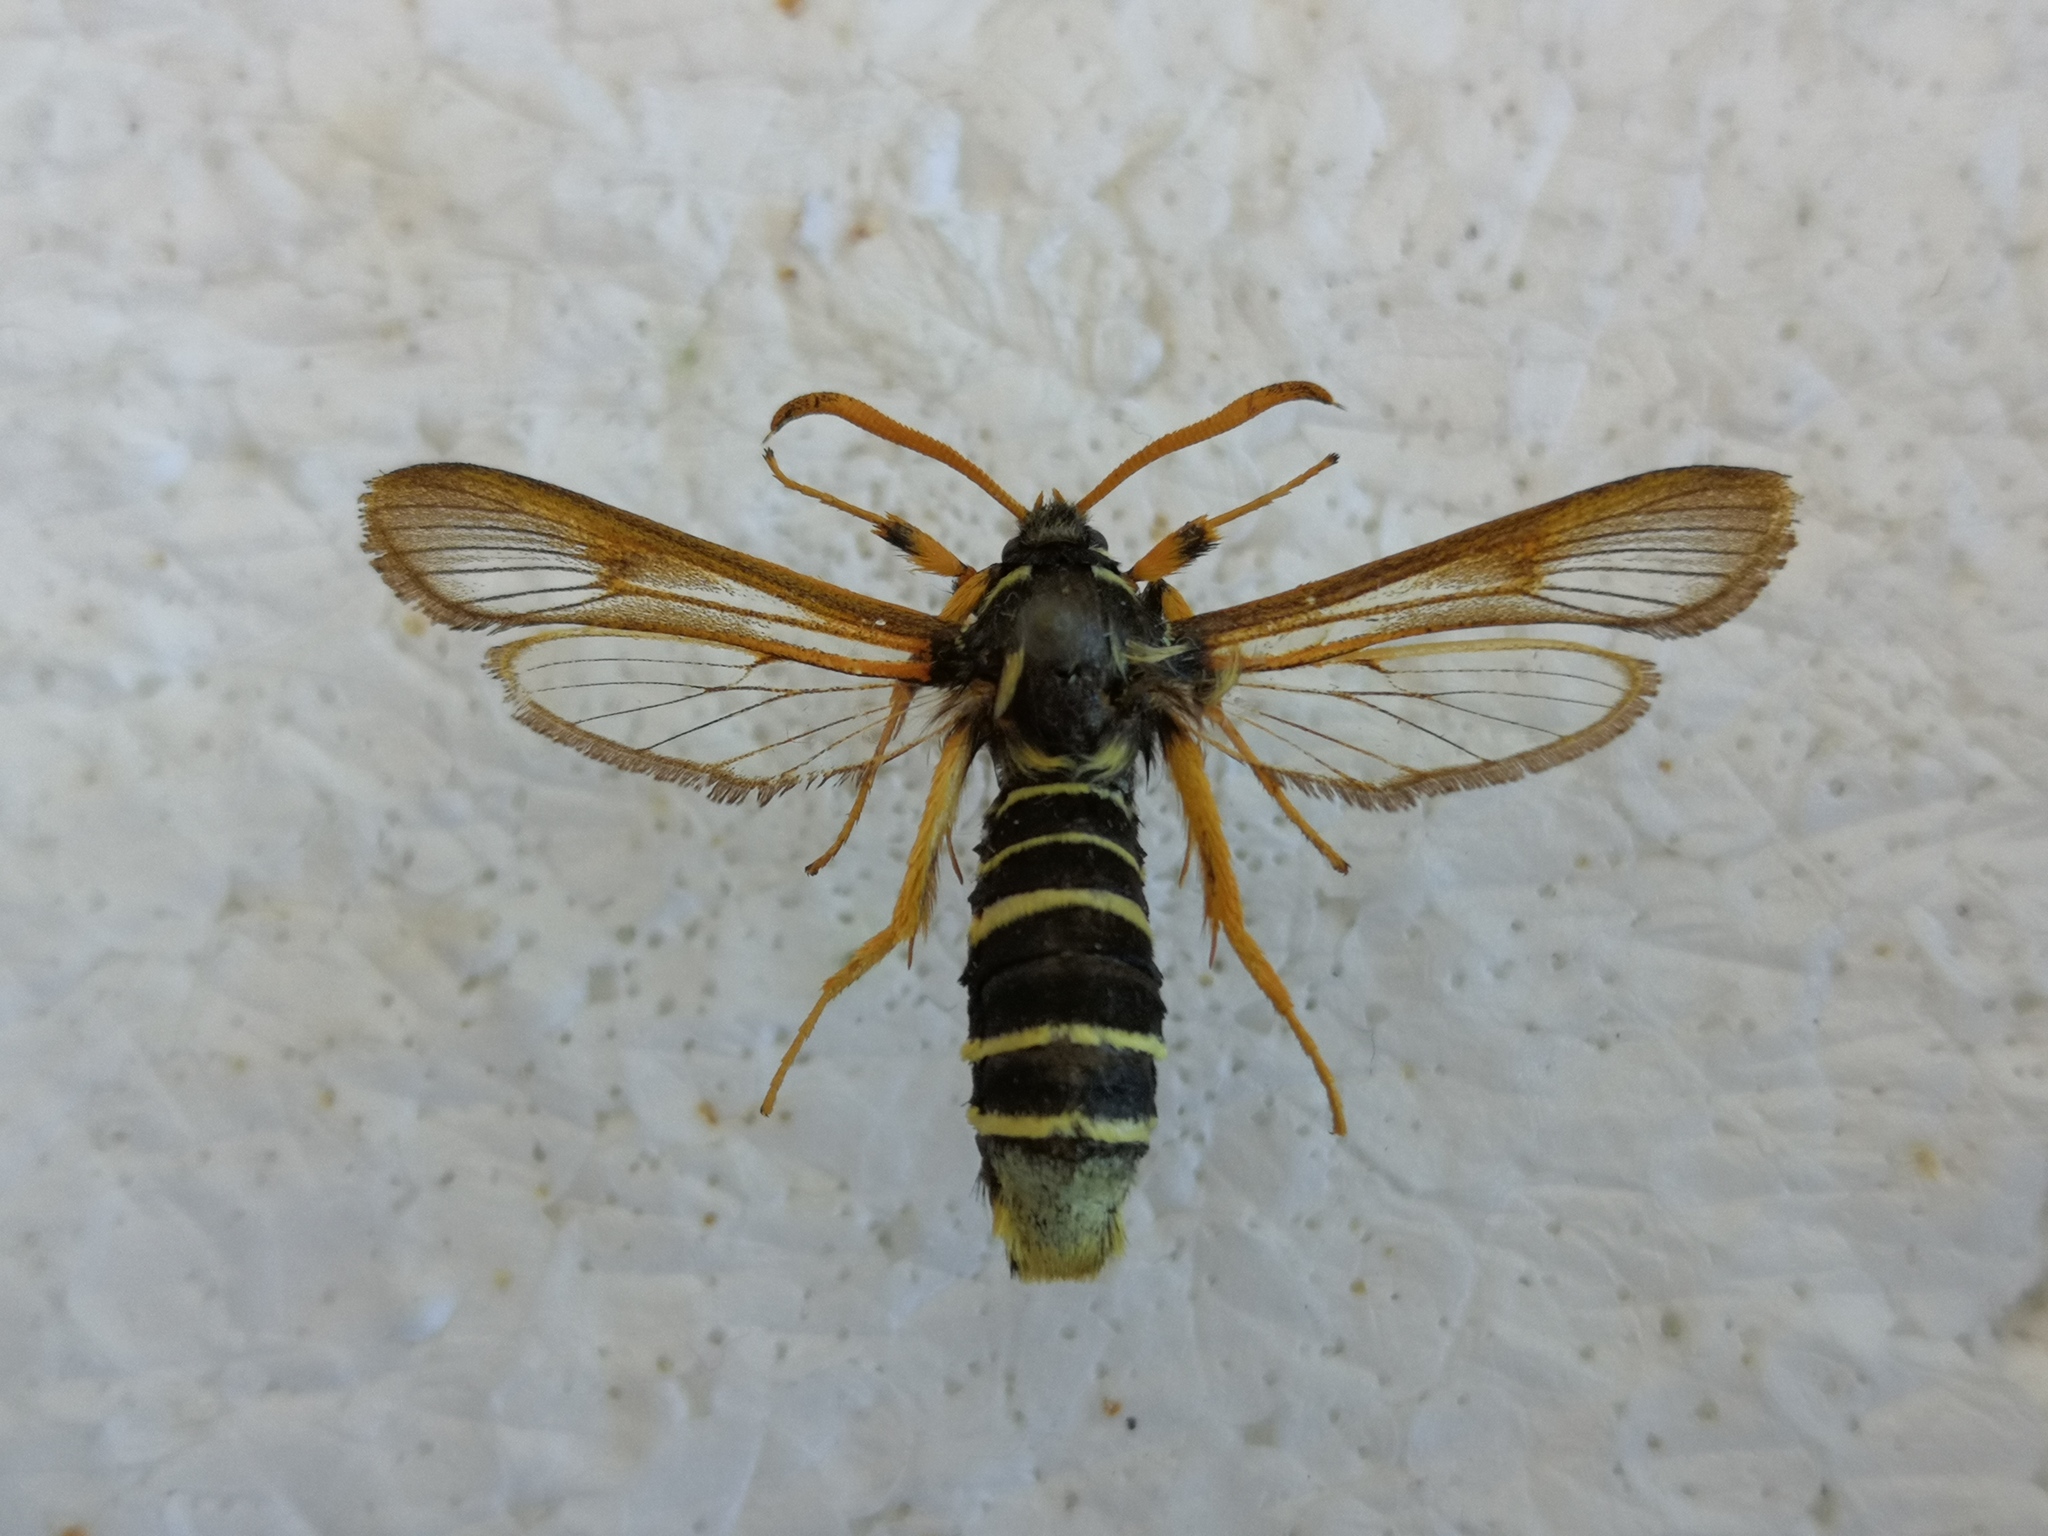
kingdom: Animalia
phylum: Arthropoda
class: Insecta
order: Lepidoptera
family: Sesiidae
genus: Eusphecia
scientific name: Eusphecia melanocephala
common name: Aspen clearwing
